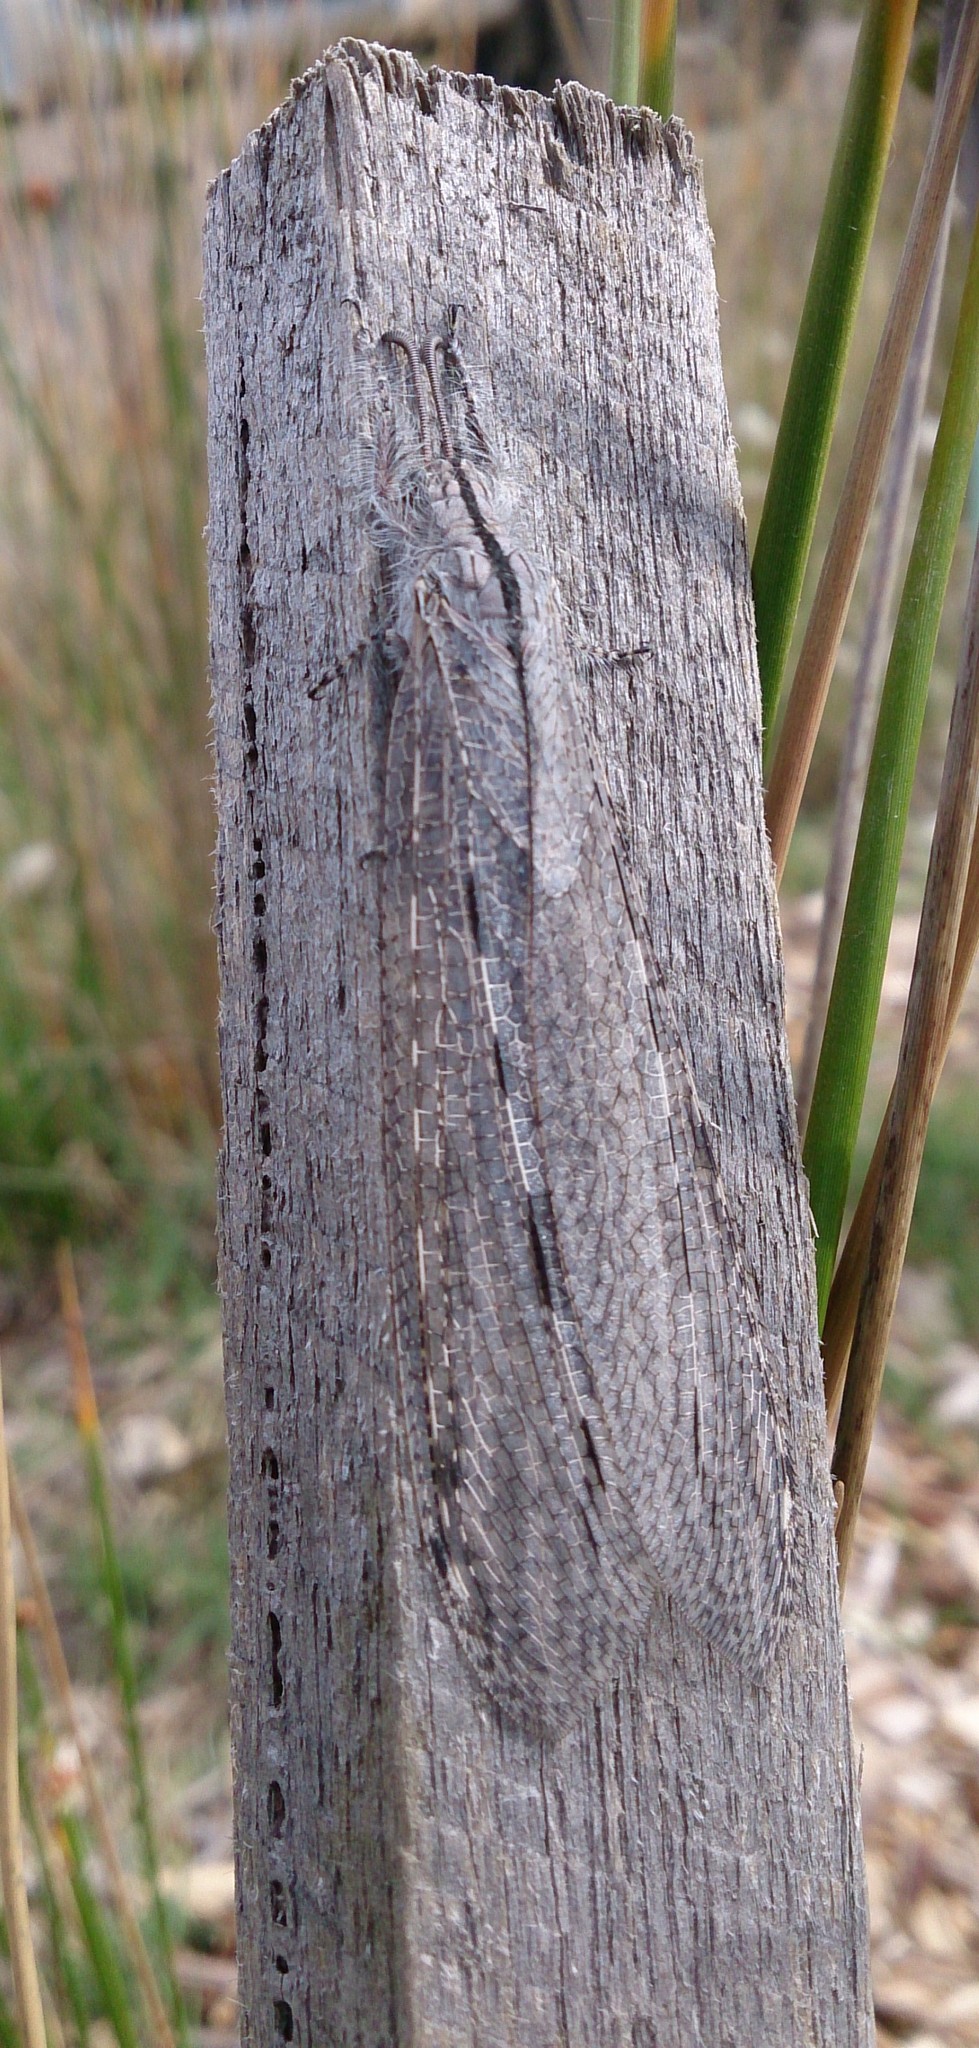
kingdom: Animalia
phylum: Arthropoda
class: Insecta
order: Neuroptera
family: Myrmeleontidae
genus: Heoclisis
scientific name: Heoclisis fundata
